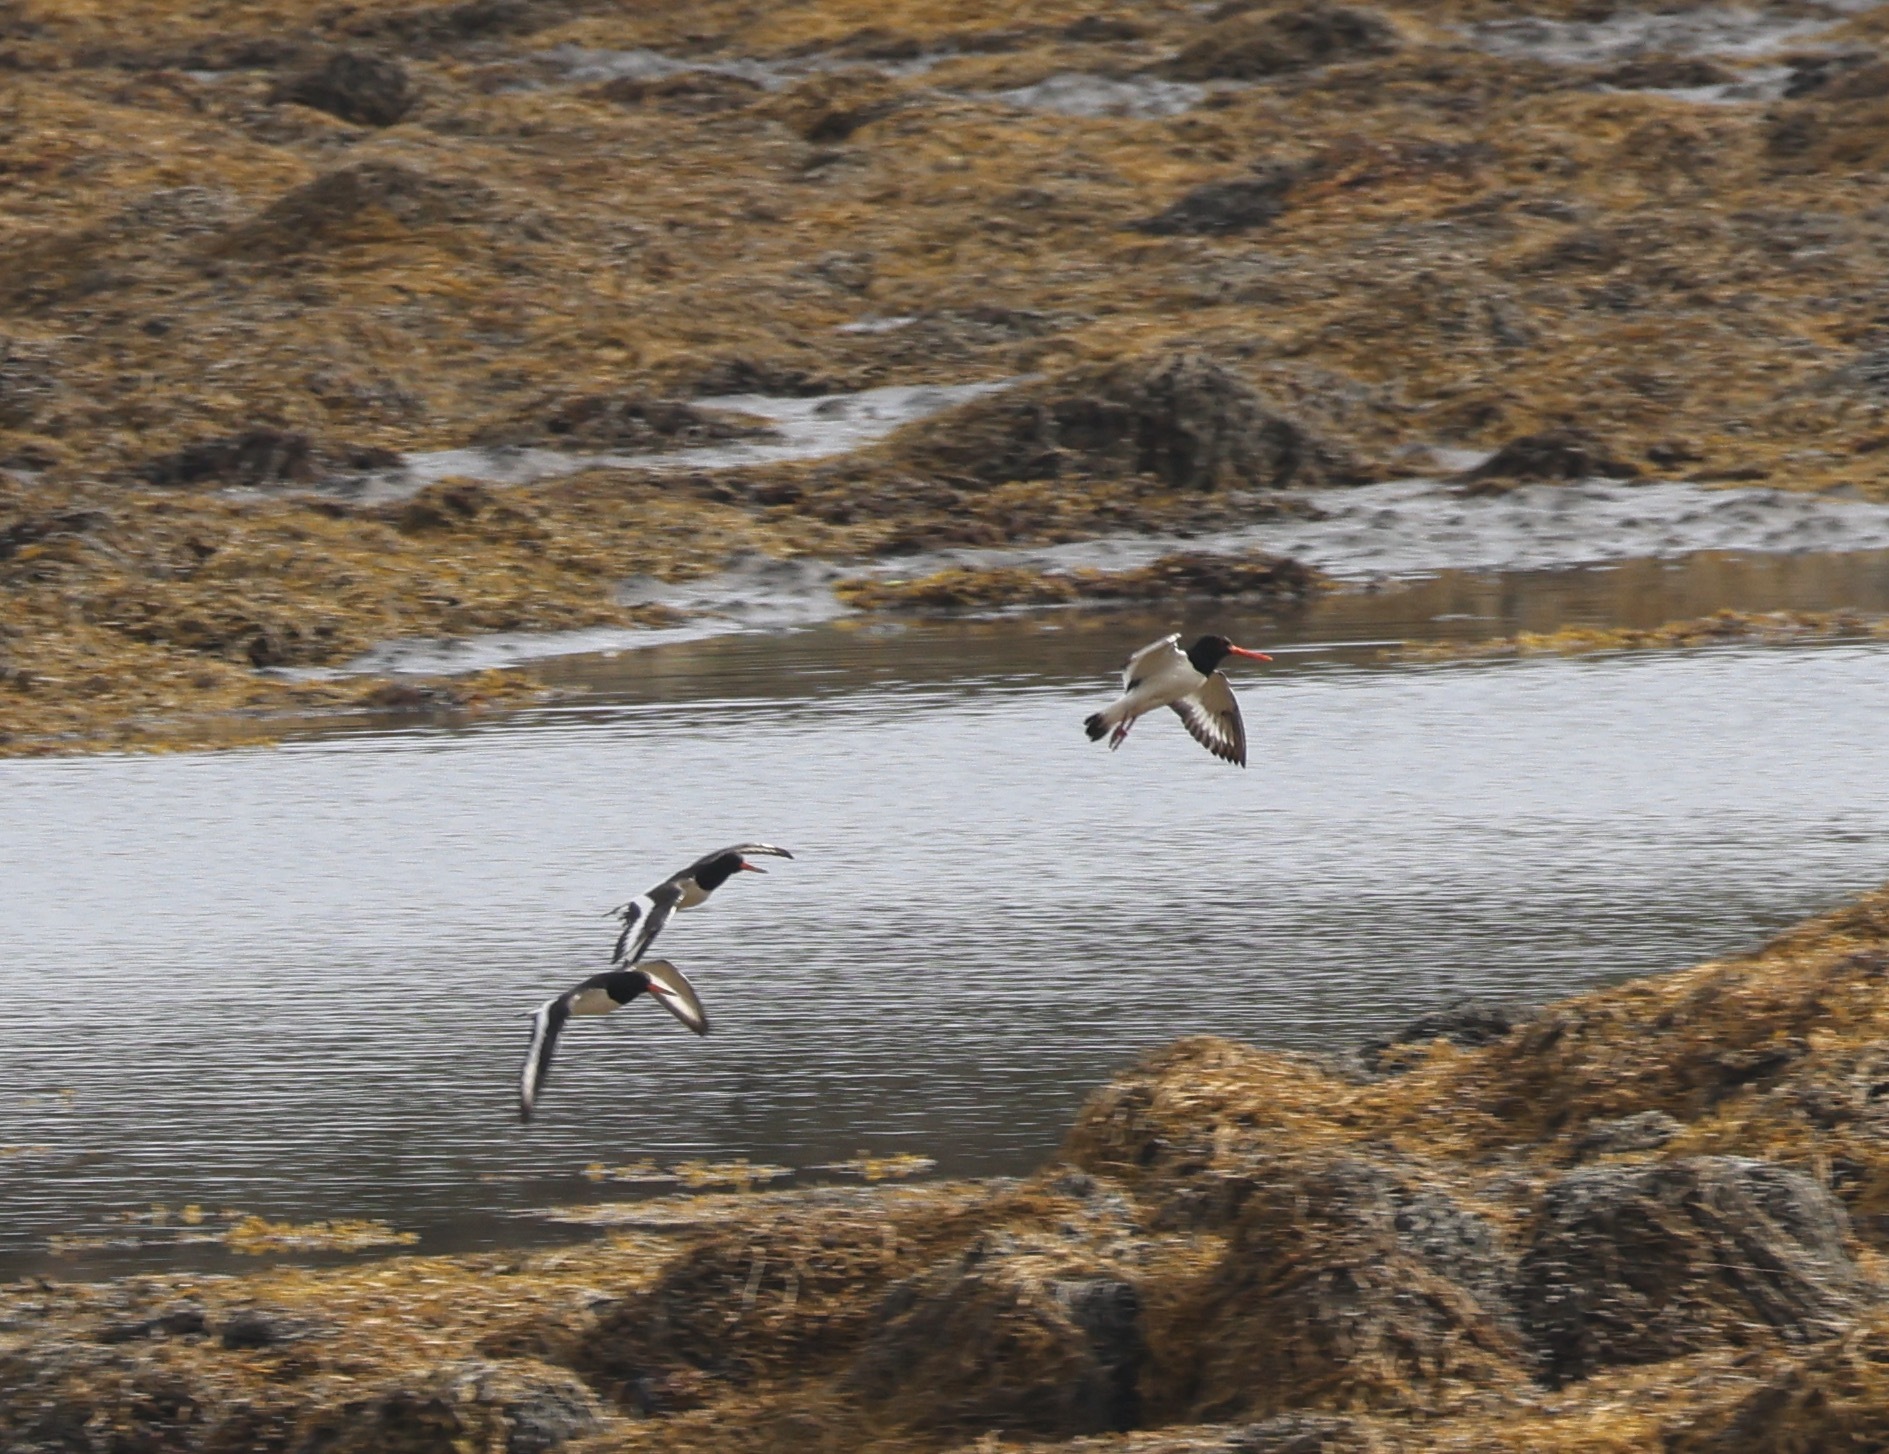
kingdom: Animalia
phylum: Chordata
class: Aves
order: Charadriiformes
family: Haematopodidae
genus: Haematopus
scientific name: Haematopus ostralegus
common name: Eurasian oystercatcher
